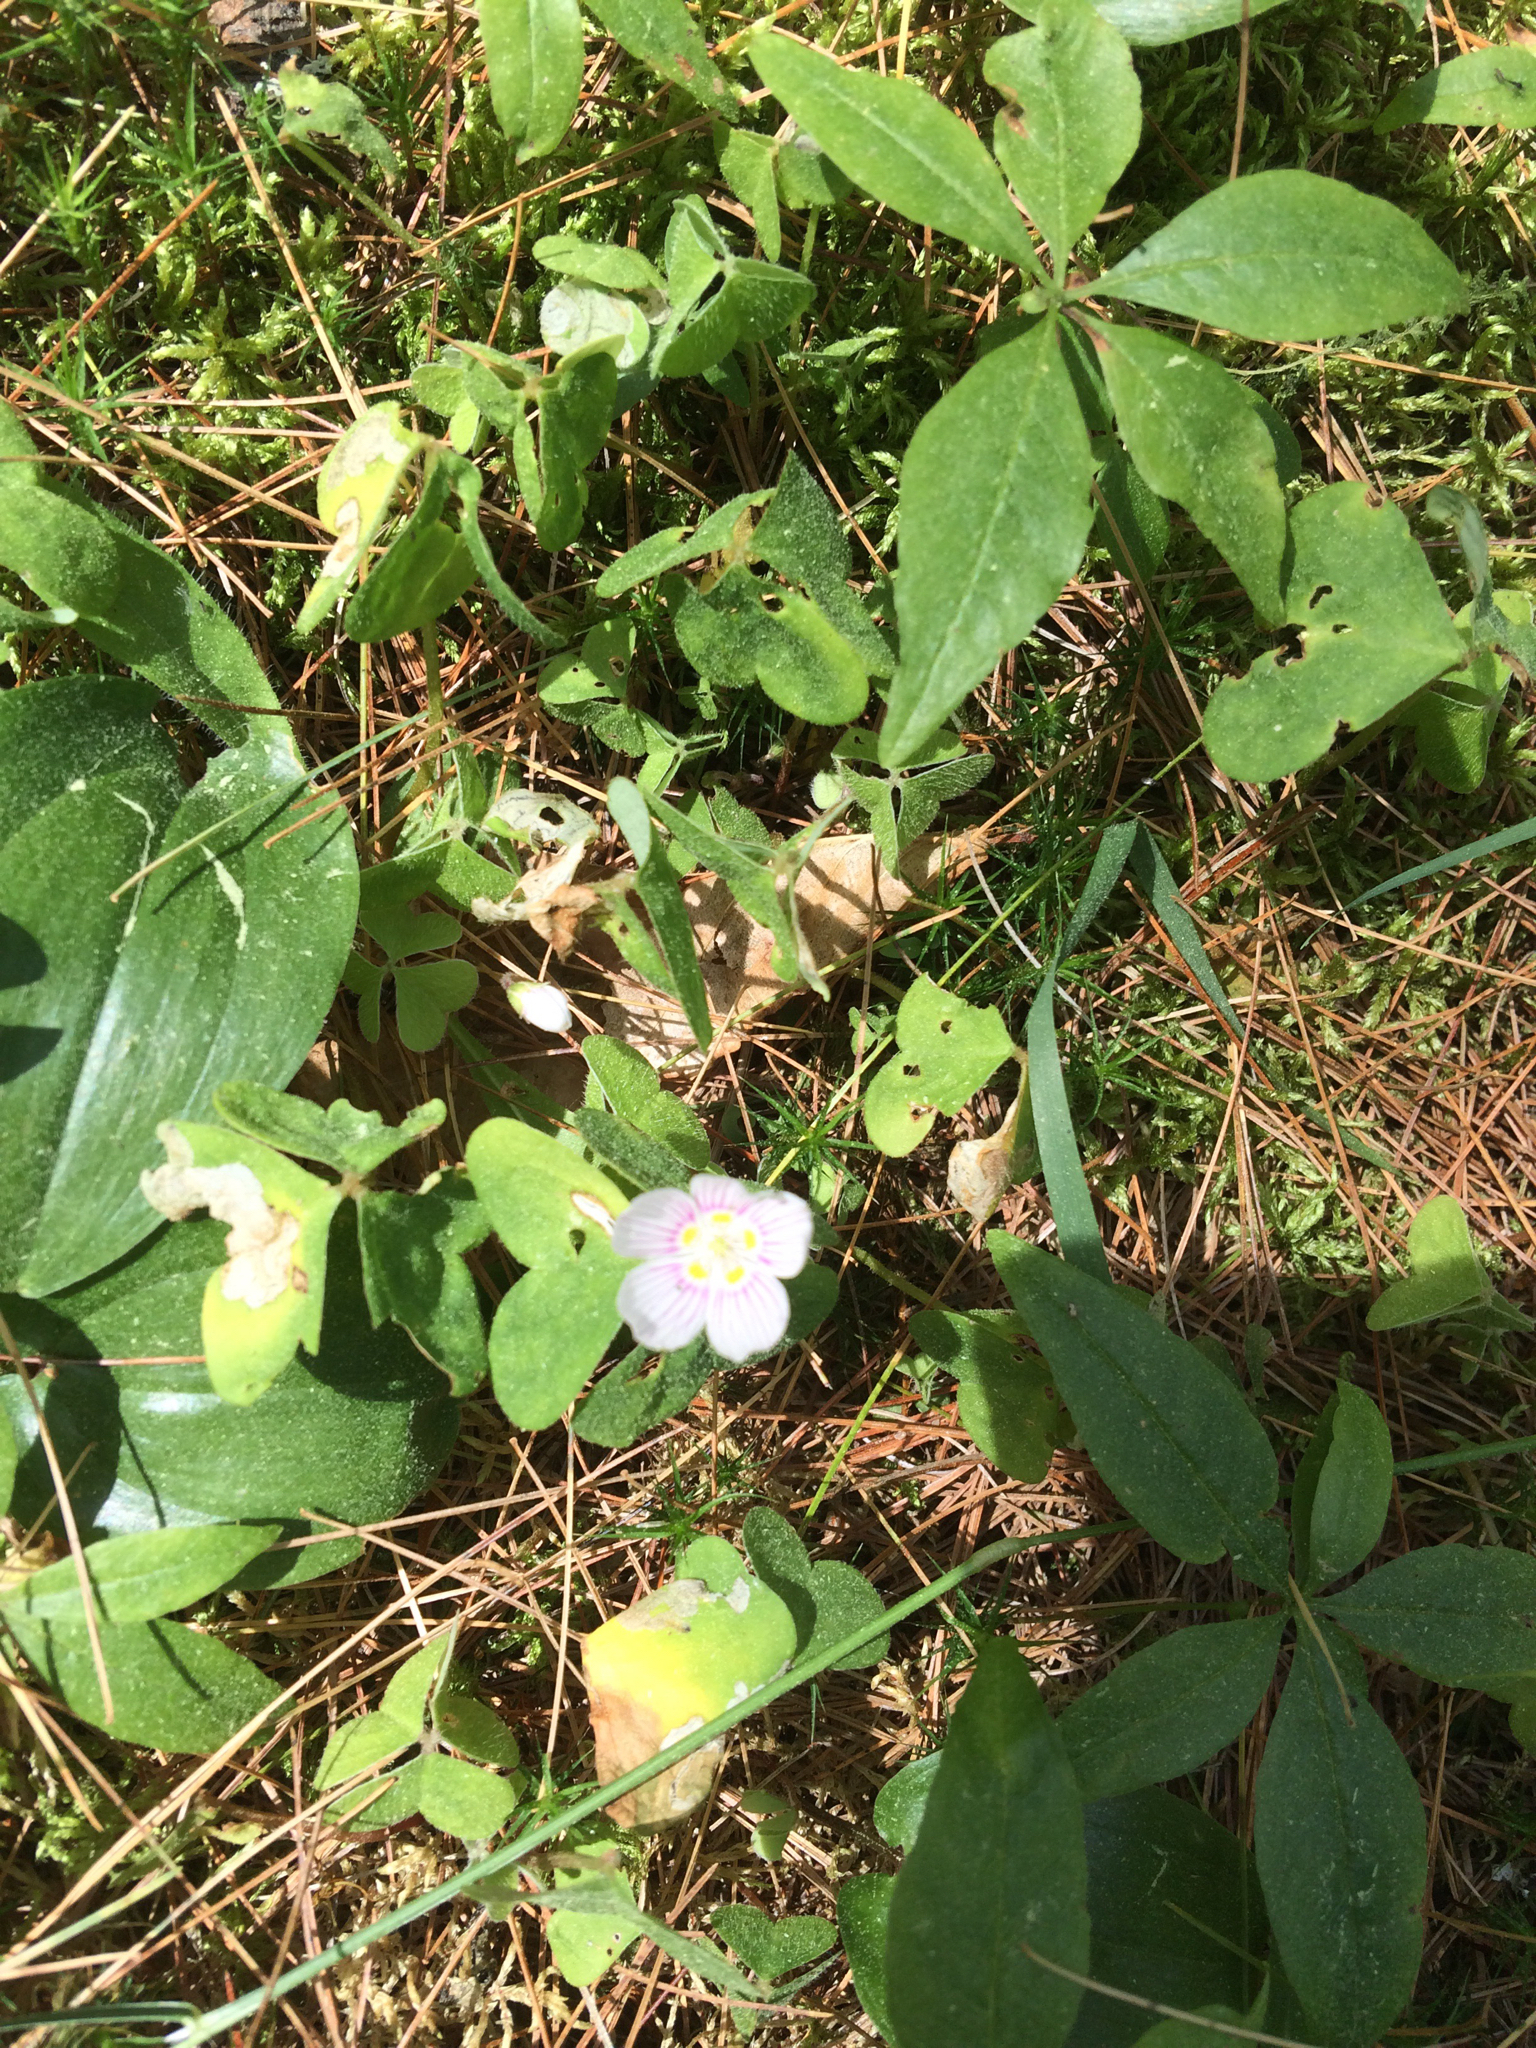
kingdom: Plantae
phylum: Tracheophyta
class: Magnoliopsida
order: Oxalidales
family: Oxalidaceae
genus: Oxalis
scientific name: Oxalis montana
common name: American wood-sorrel
